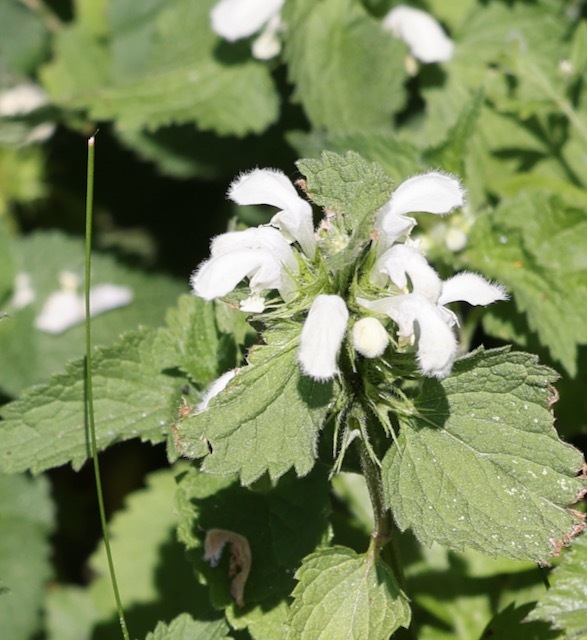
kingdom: Plantae
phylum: Tracheophyta
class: Magnoliopsida
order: Lamiales
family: Lamiaceae
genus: Lamium
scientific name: Lamium album
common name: White dead-nettle
